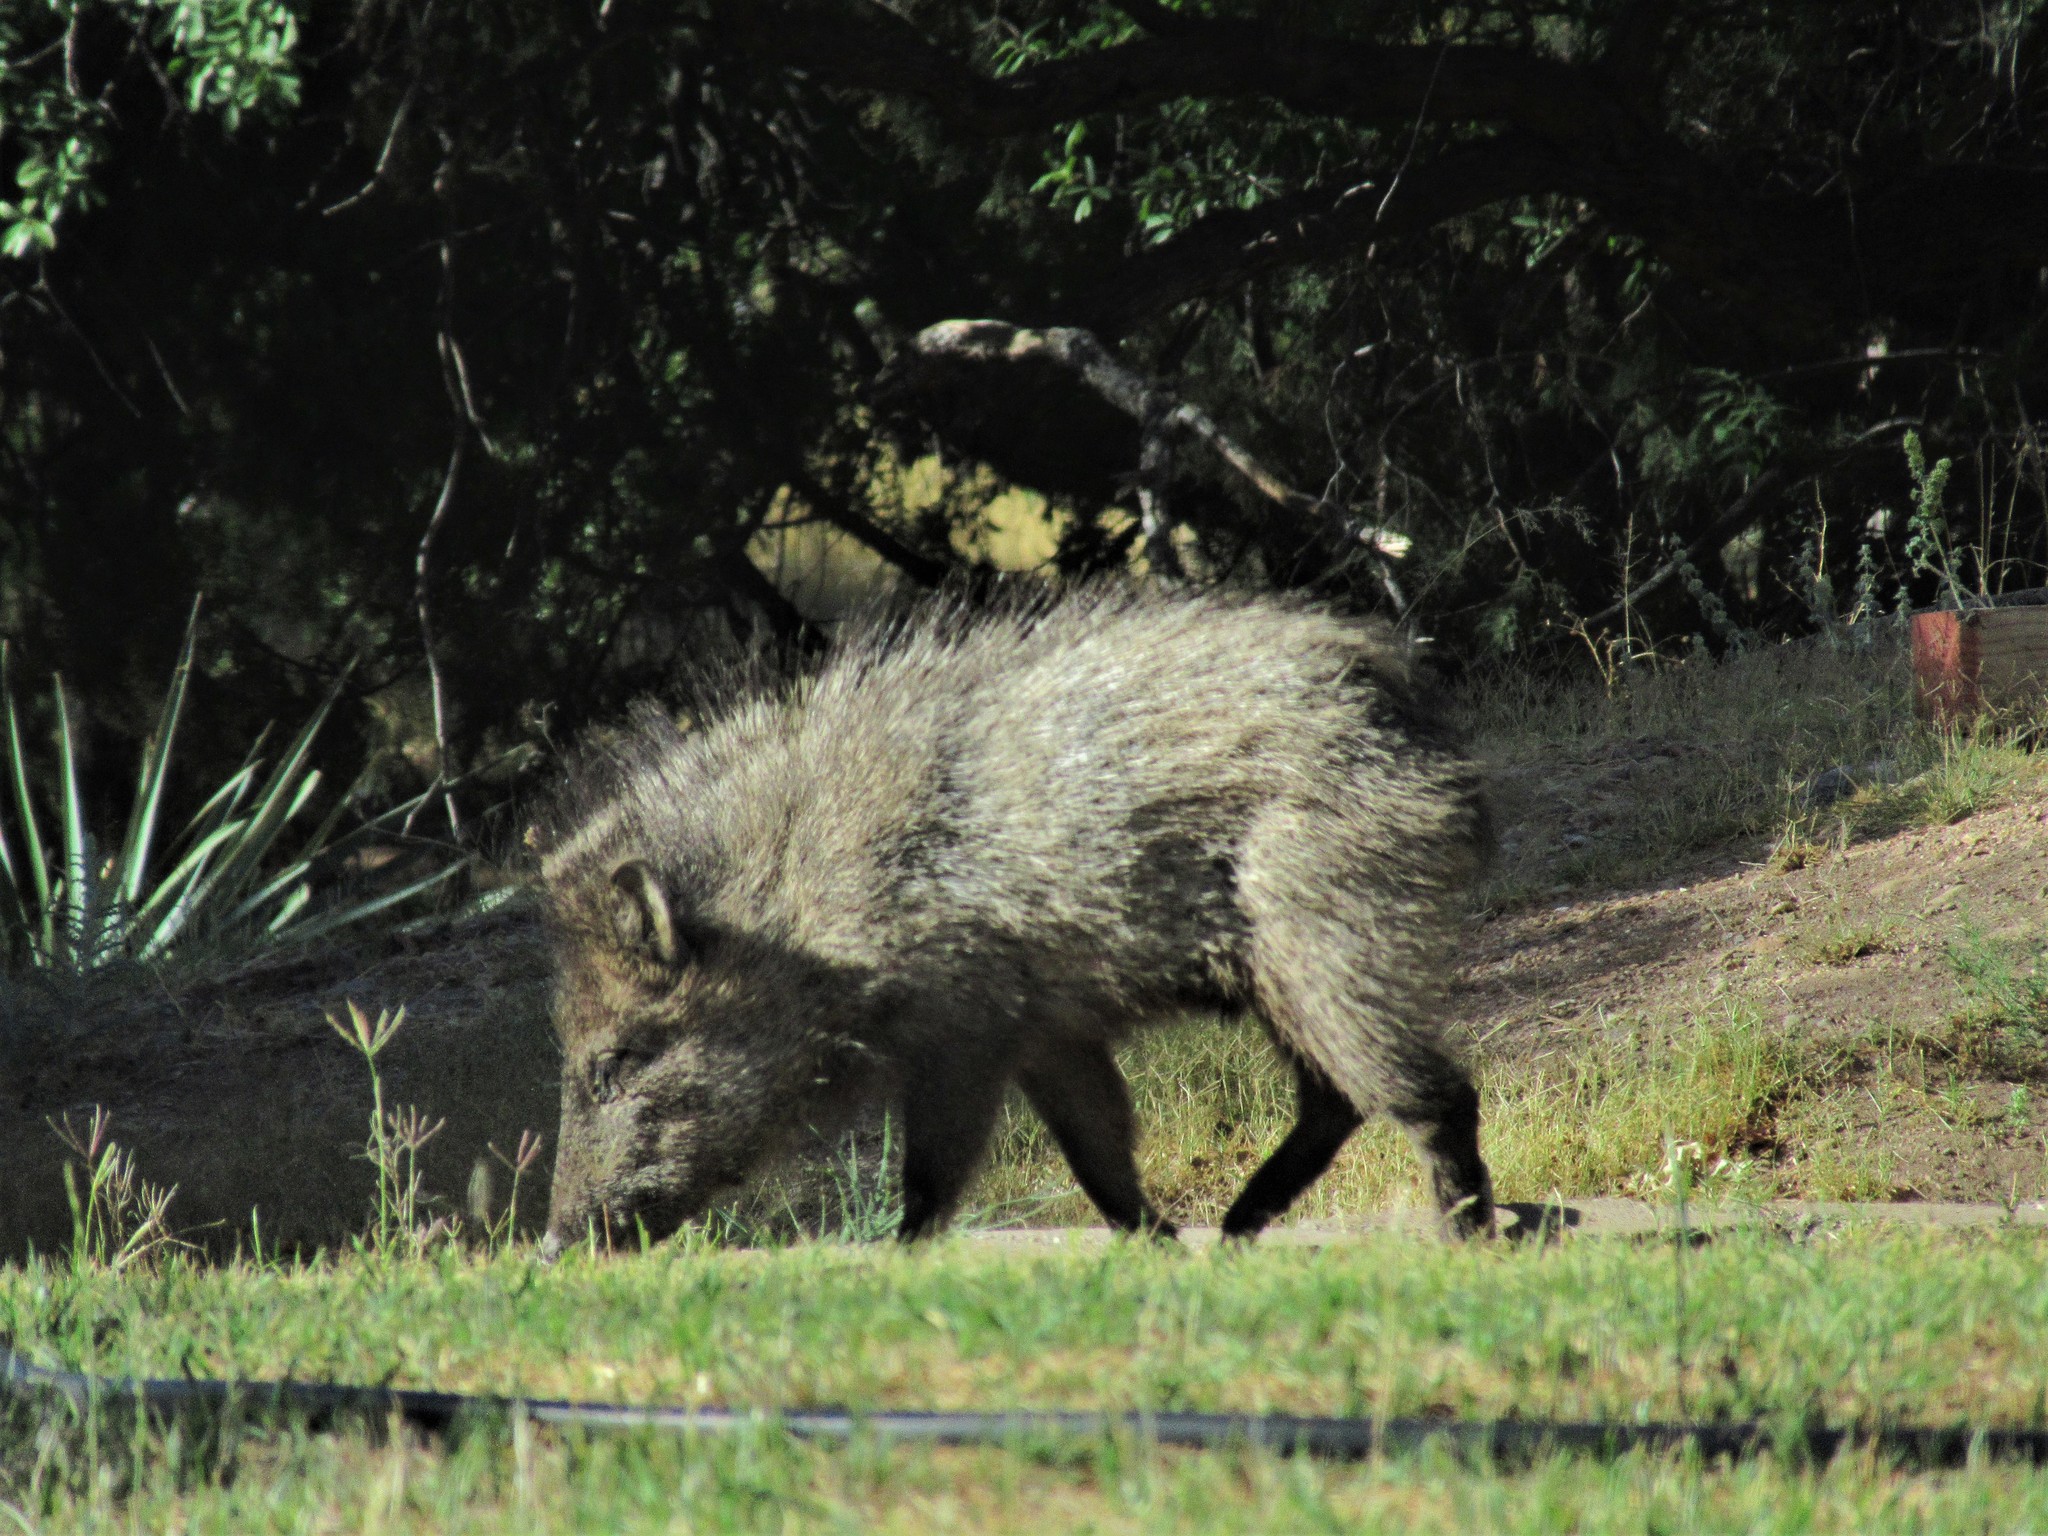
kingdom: Animalia
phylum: Chordata
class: Mammalia
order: Artiodactyla
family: Tayassuidae
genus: Pecari
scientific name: Pecari tajacu
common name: Collared peccary
